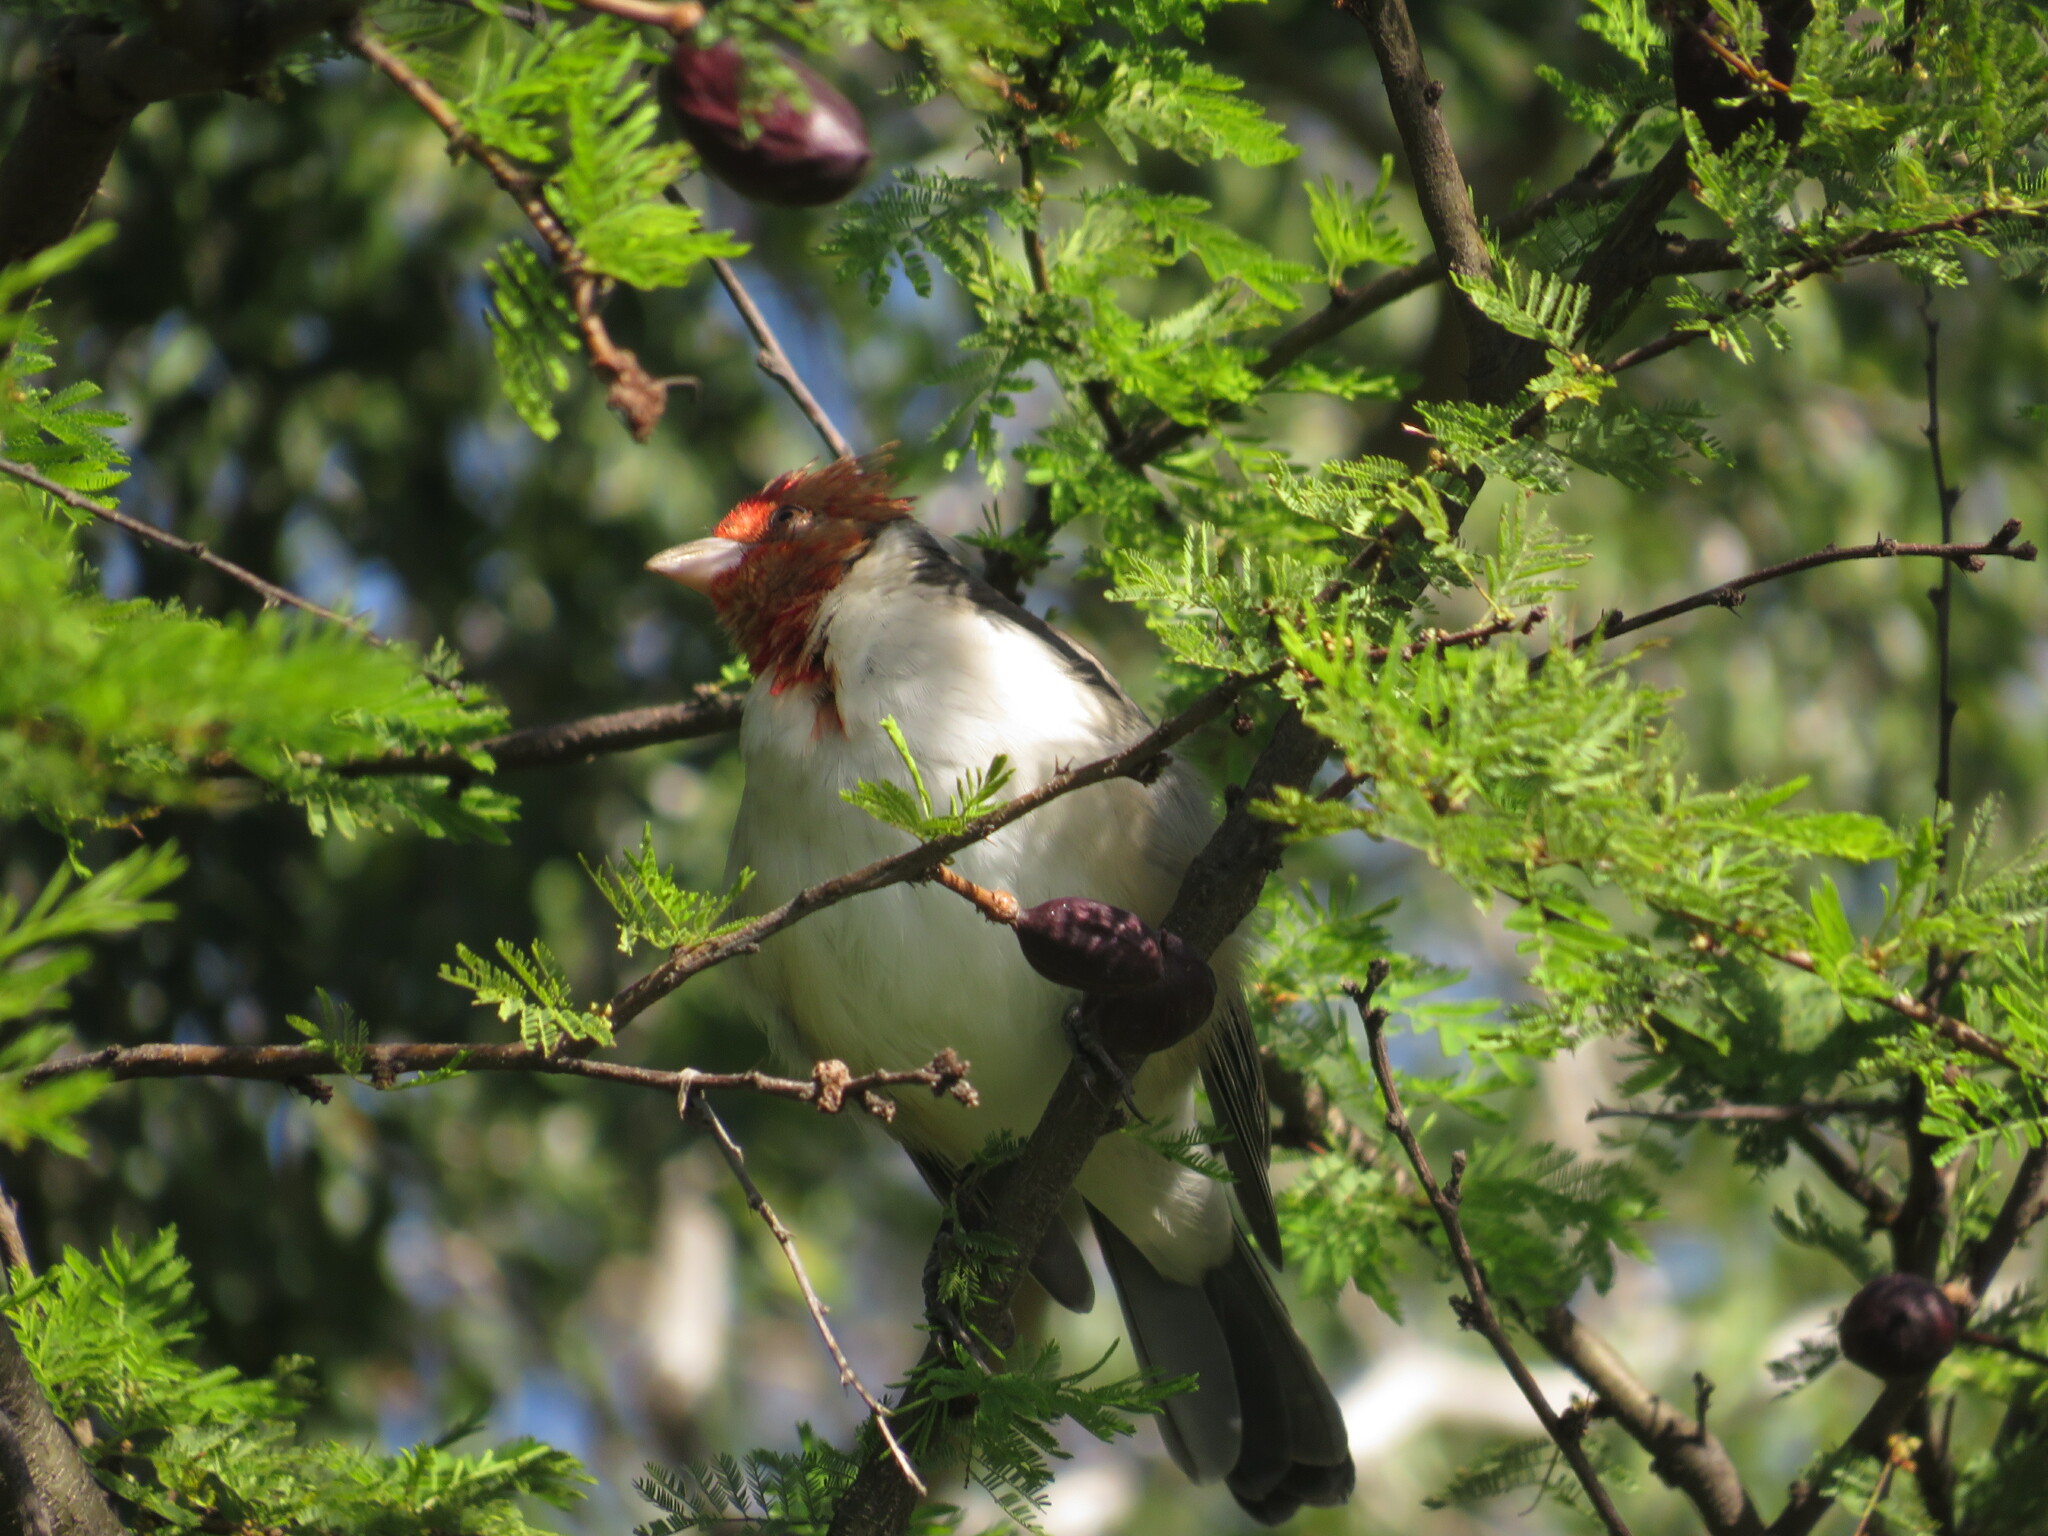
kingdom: Animalia
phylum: Chordata
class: Aves
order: Passeriformes
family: Thraupidae
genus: Paroaria
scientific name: Paroaria coronata
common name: Red-crested cardinal
